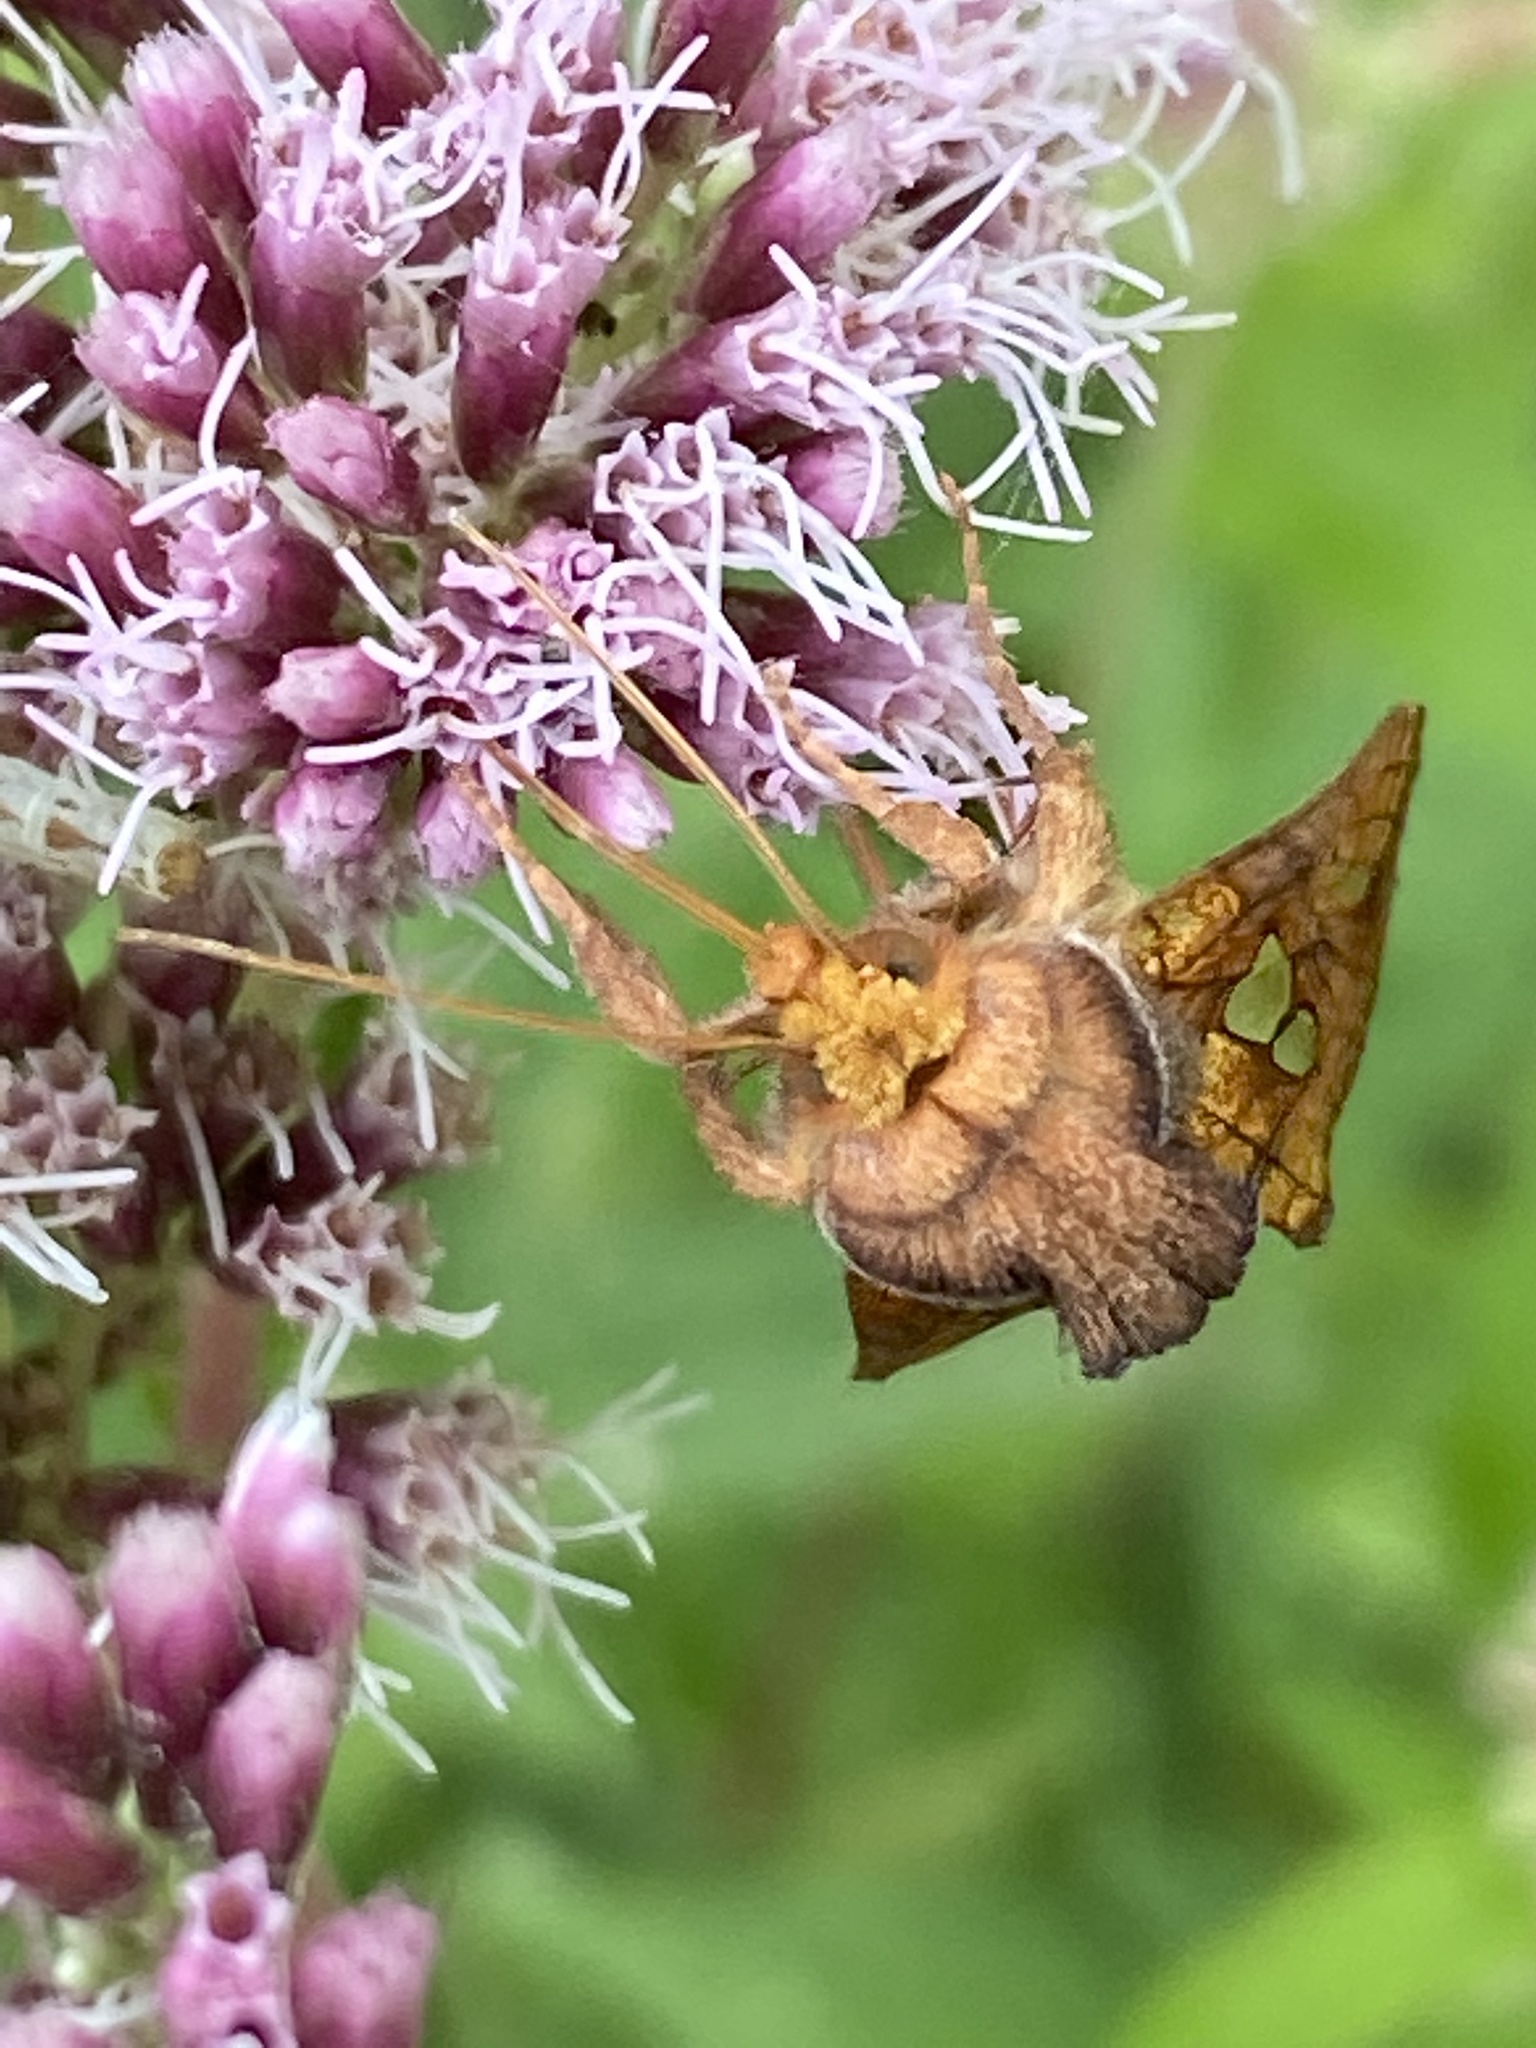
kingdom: Animalia
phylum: Arthropoda
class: Insecta
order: Lepidoptera
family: Noctuidae
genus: Plusia
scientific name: Plusia festucae
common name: Gold spot
